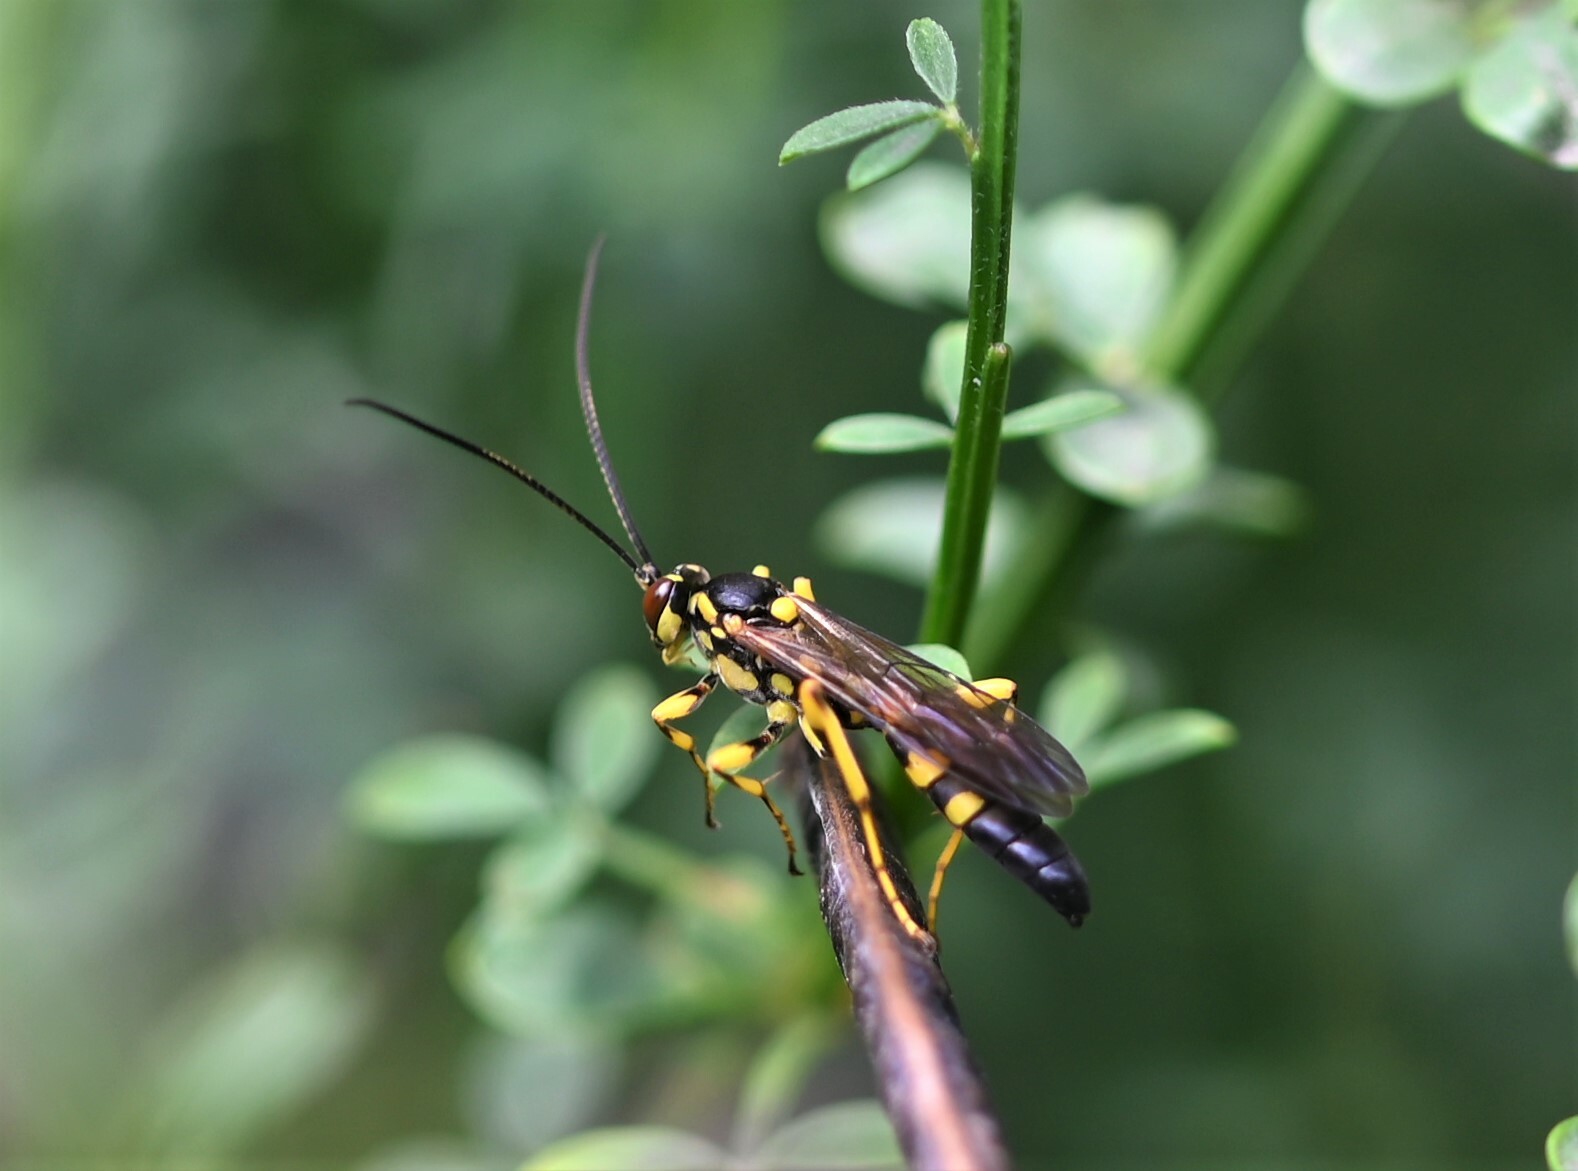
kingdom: Animalia
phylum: Arthropoda
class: Insecta
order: Hymenoptera
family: Ichneumonidae
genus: Hepiopelmus
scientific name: Hepiopelmus variegatorius
